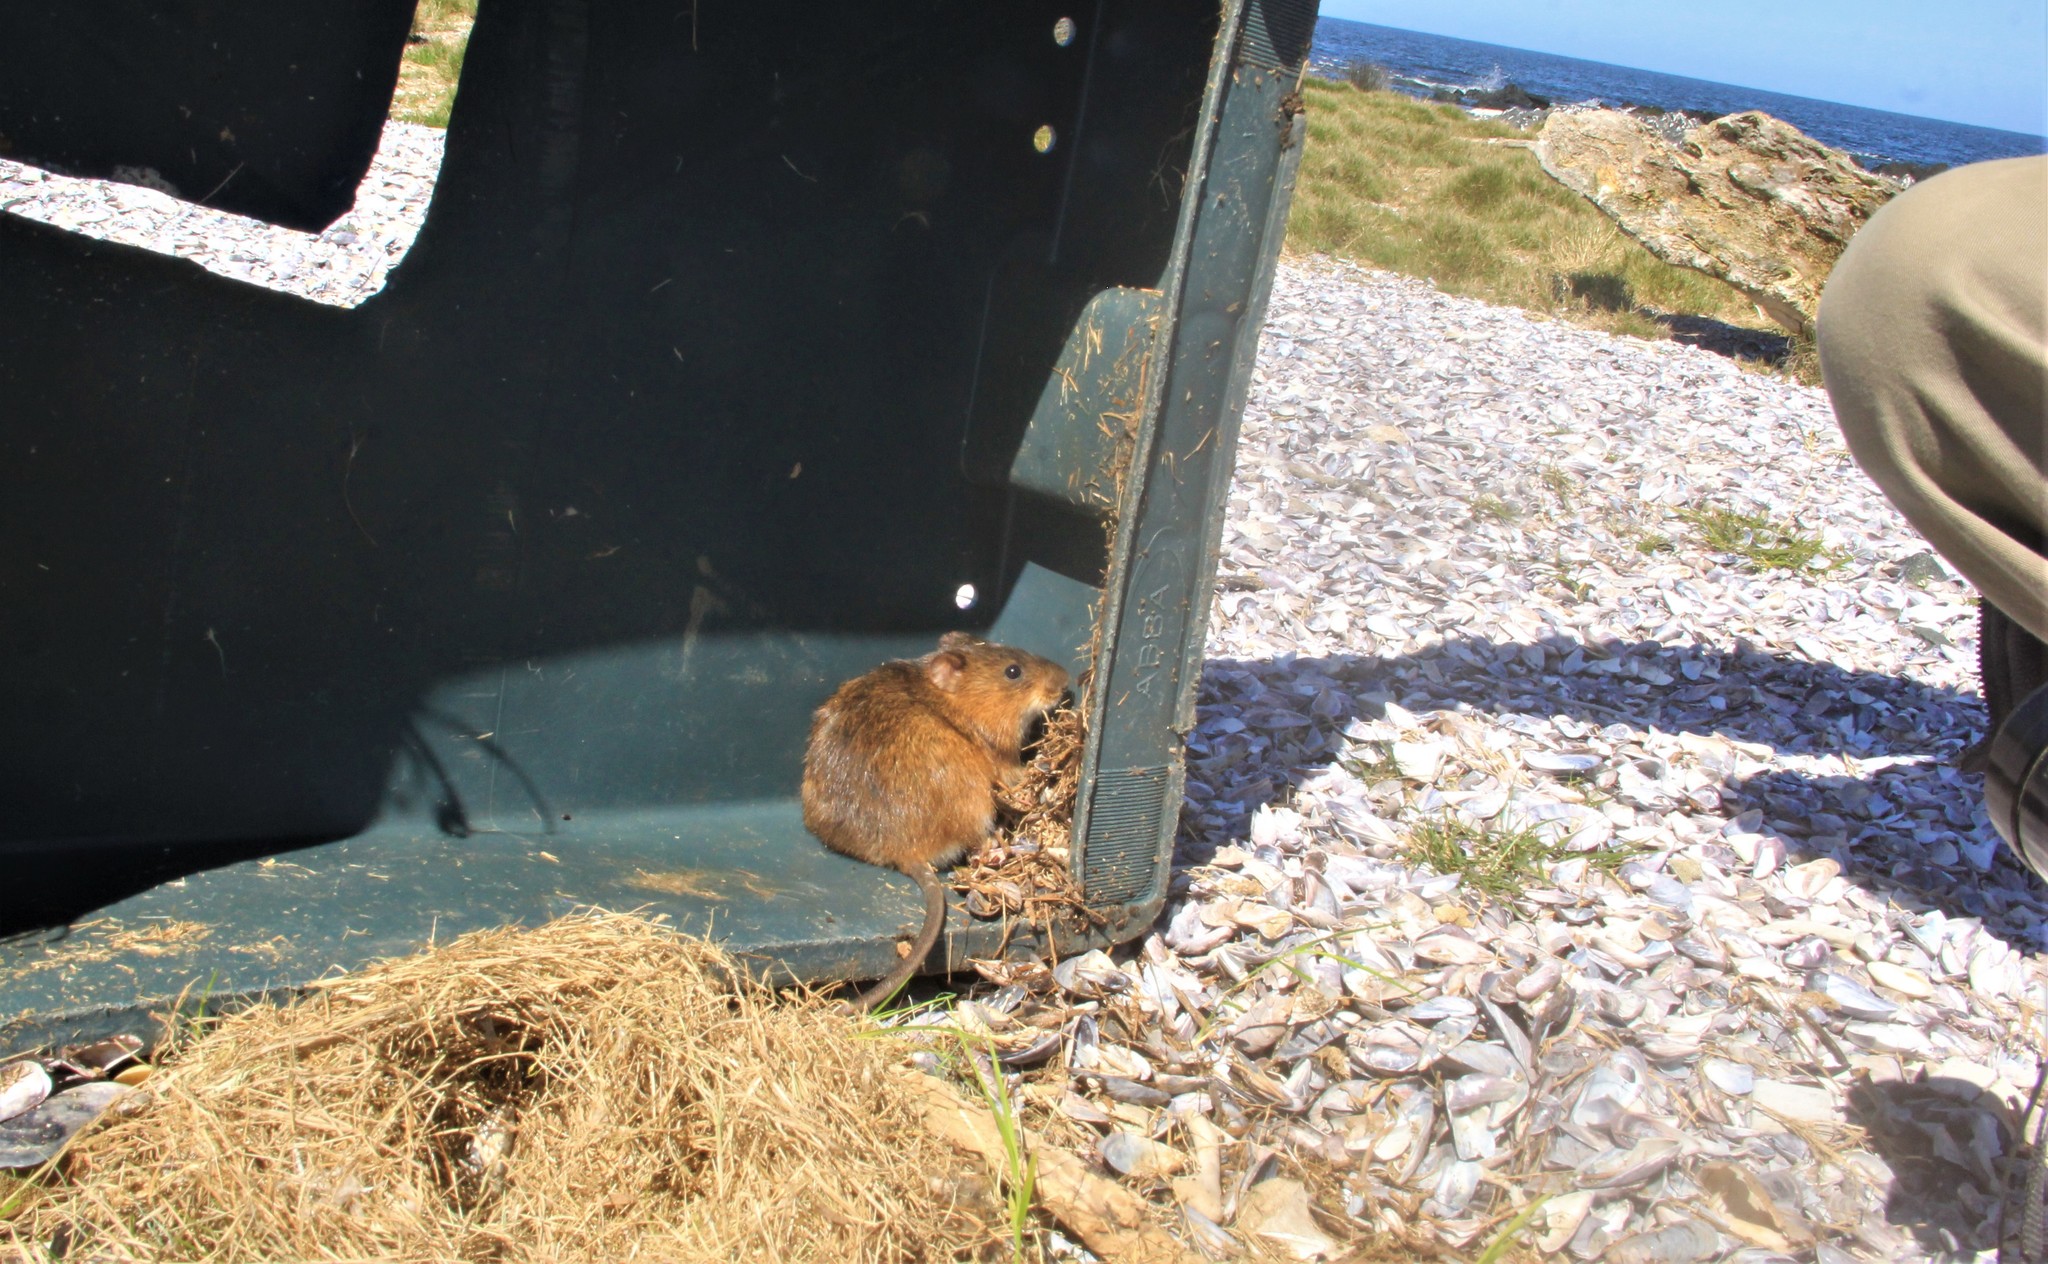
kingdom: Animalia
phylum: Chordata
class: Mammalia
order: Rodentia
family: Cricetidae
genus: Holochilus
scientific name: Holochilus brasiliensis
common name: Brazilian marsh rat
